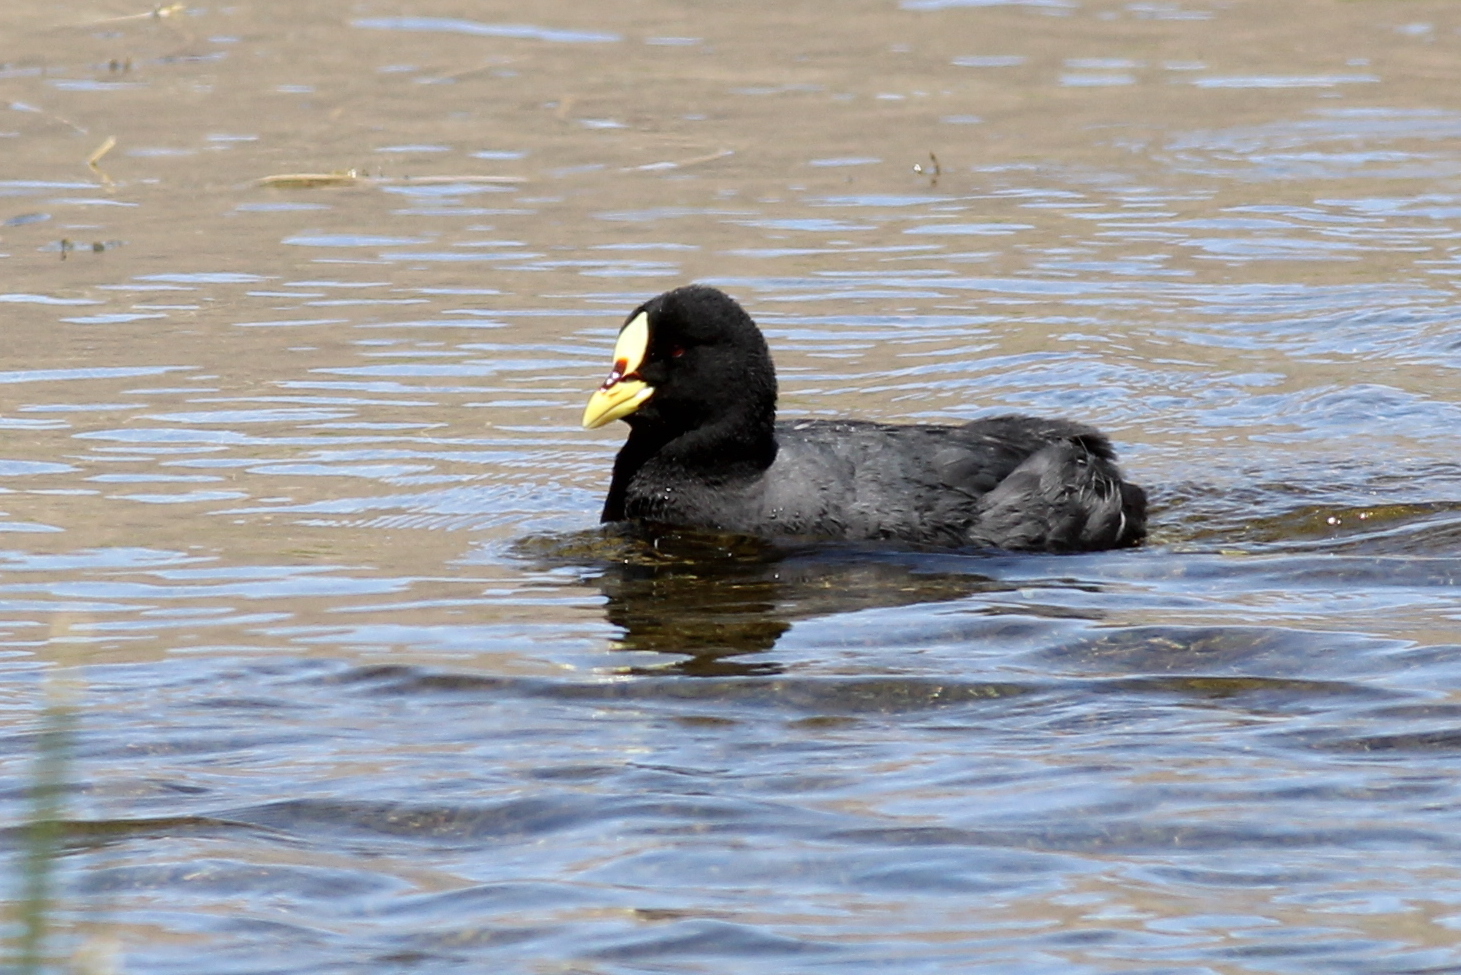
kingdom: Animalia
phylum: Chordata
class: Aves
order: Gruiformes
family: Rallidae
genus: Fulica
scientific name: Fulica armillata
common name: Red-gartered coot
